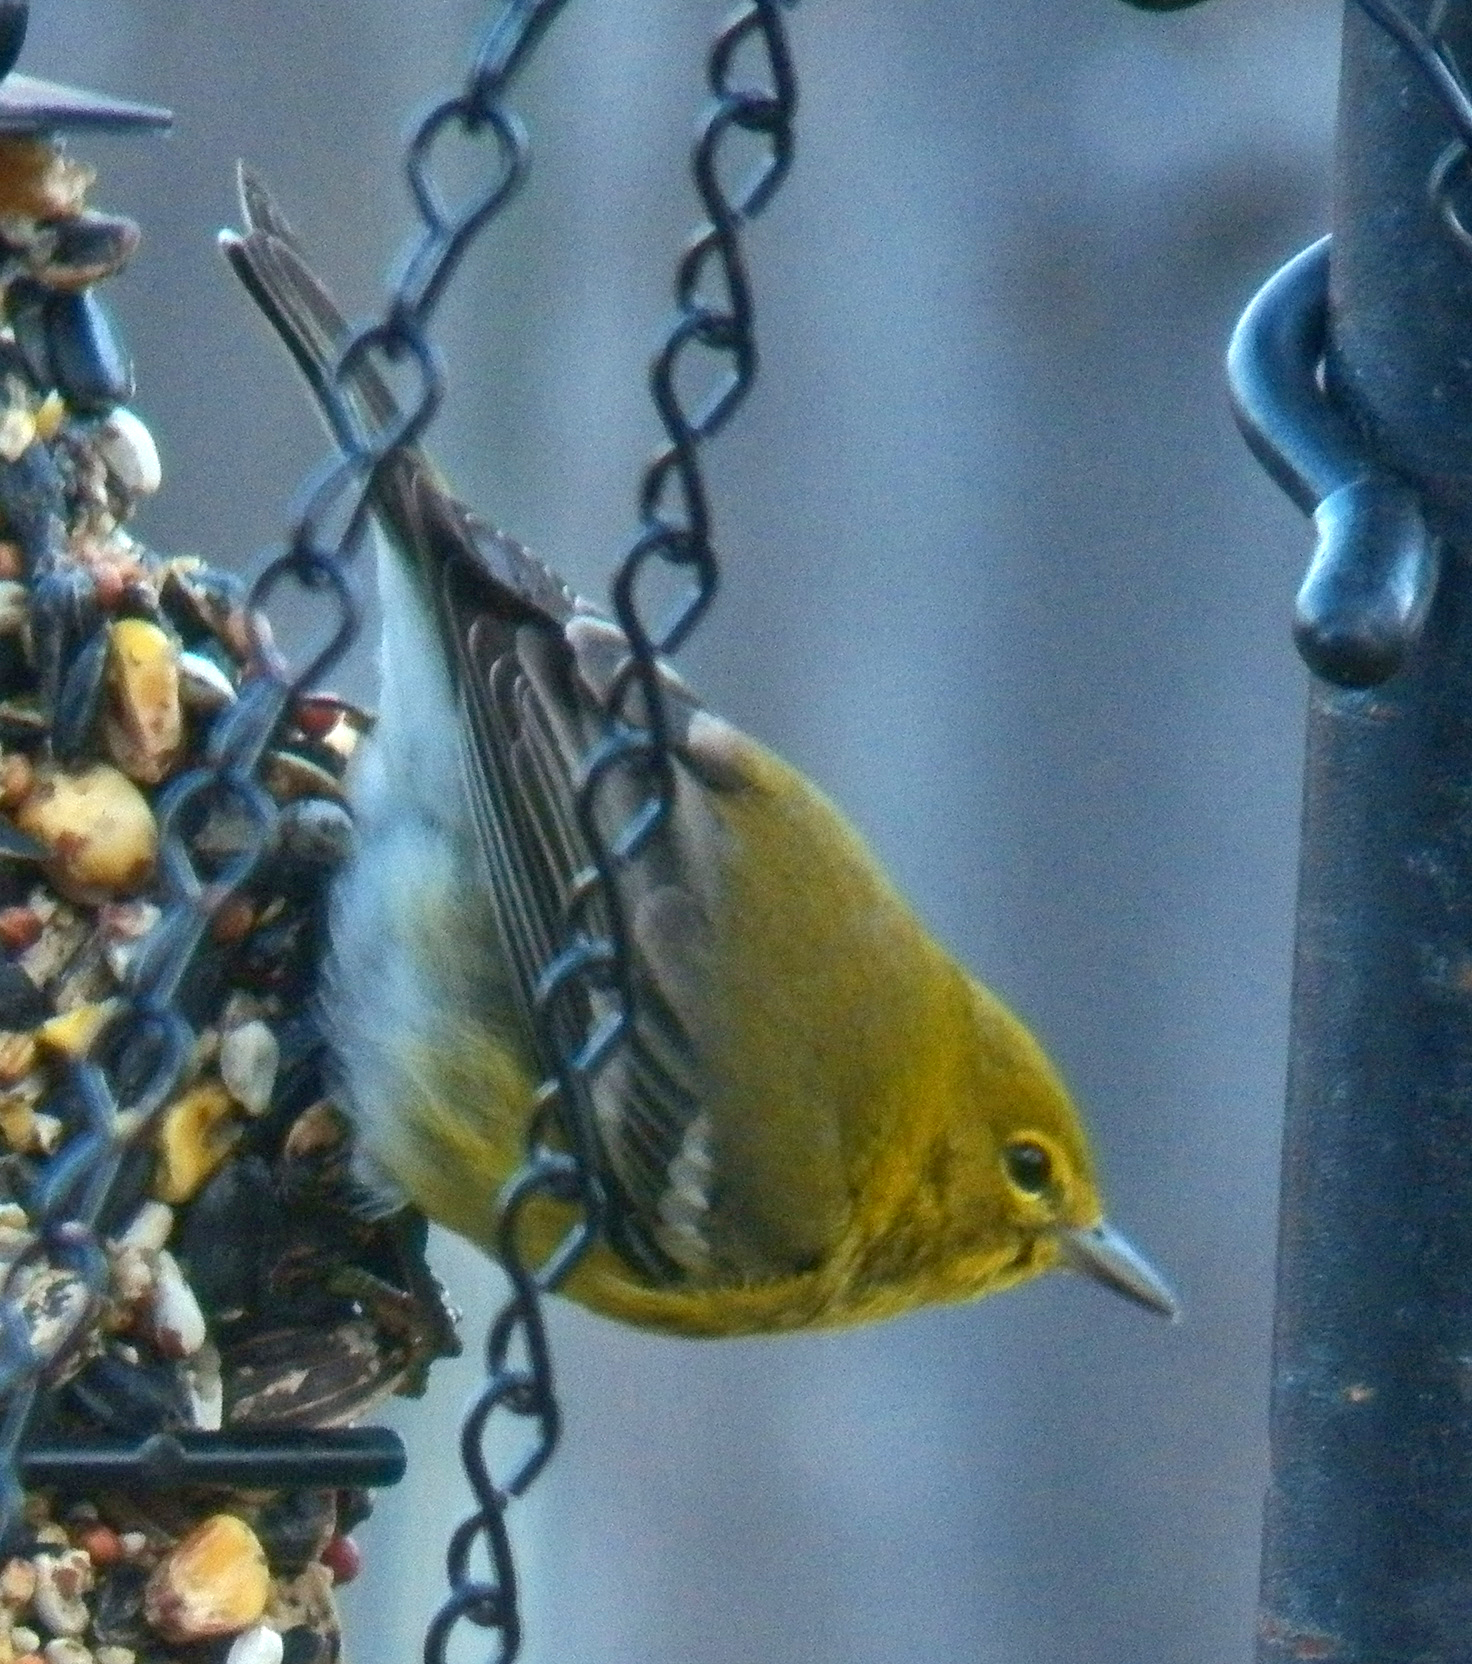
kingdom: Animalia
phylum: Chordata
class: Aves
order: Passeriformes
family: Parulidae
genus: Setophaga
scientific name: Setophaga pinus
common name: Pine warbler
